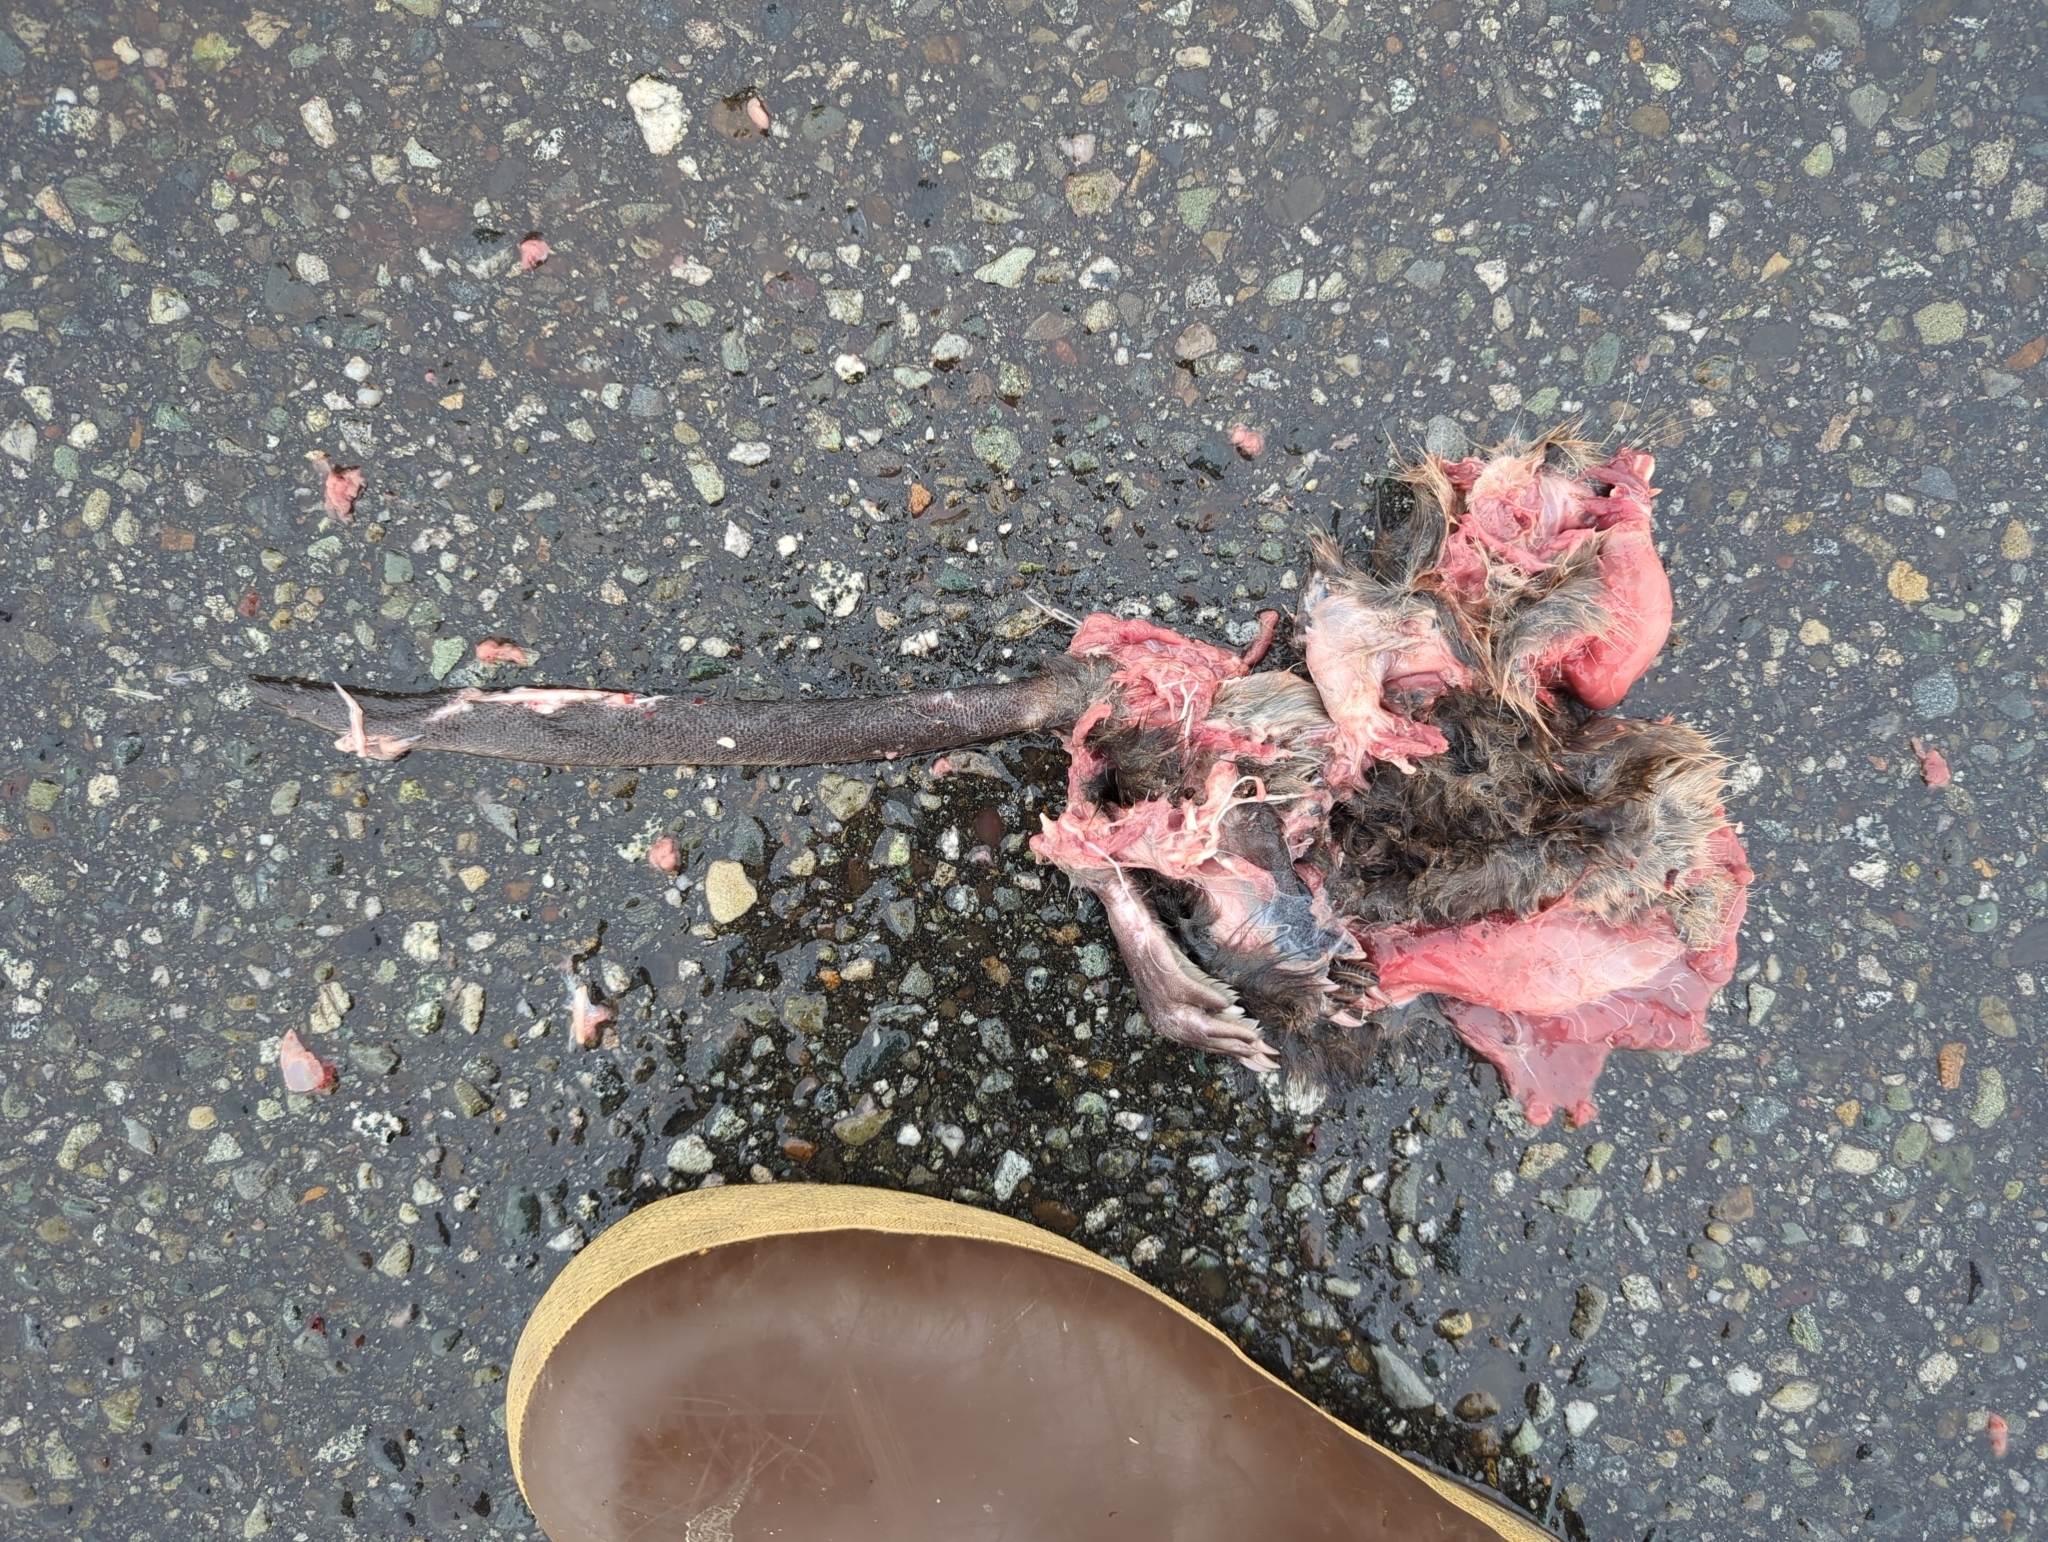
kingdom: Animalia
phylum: Chordata
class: Mammalia
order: Rodentia
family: Cricetidae
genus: Ondatra
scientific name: Ondatra zibethicus
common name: Muskrat
